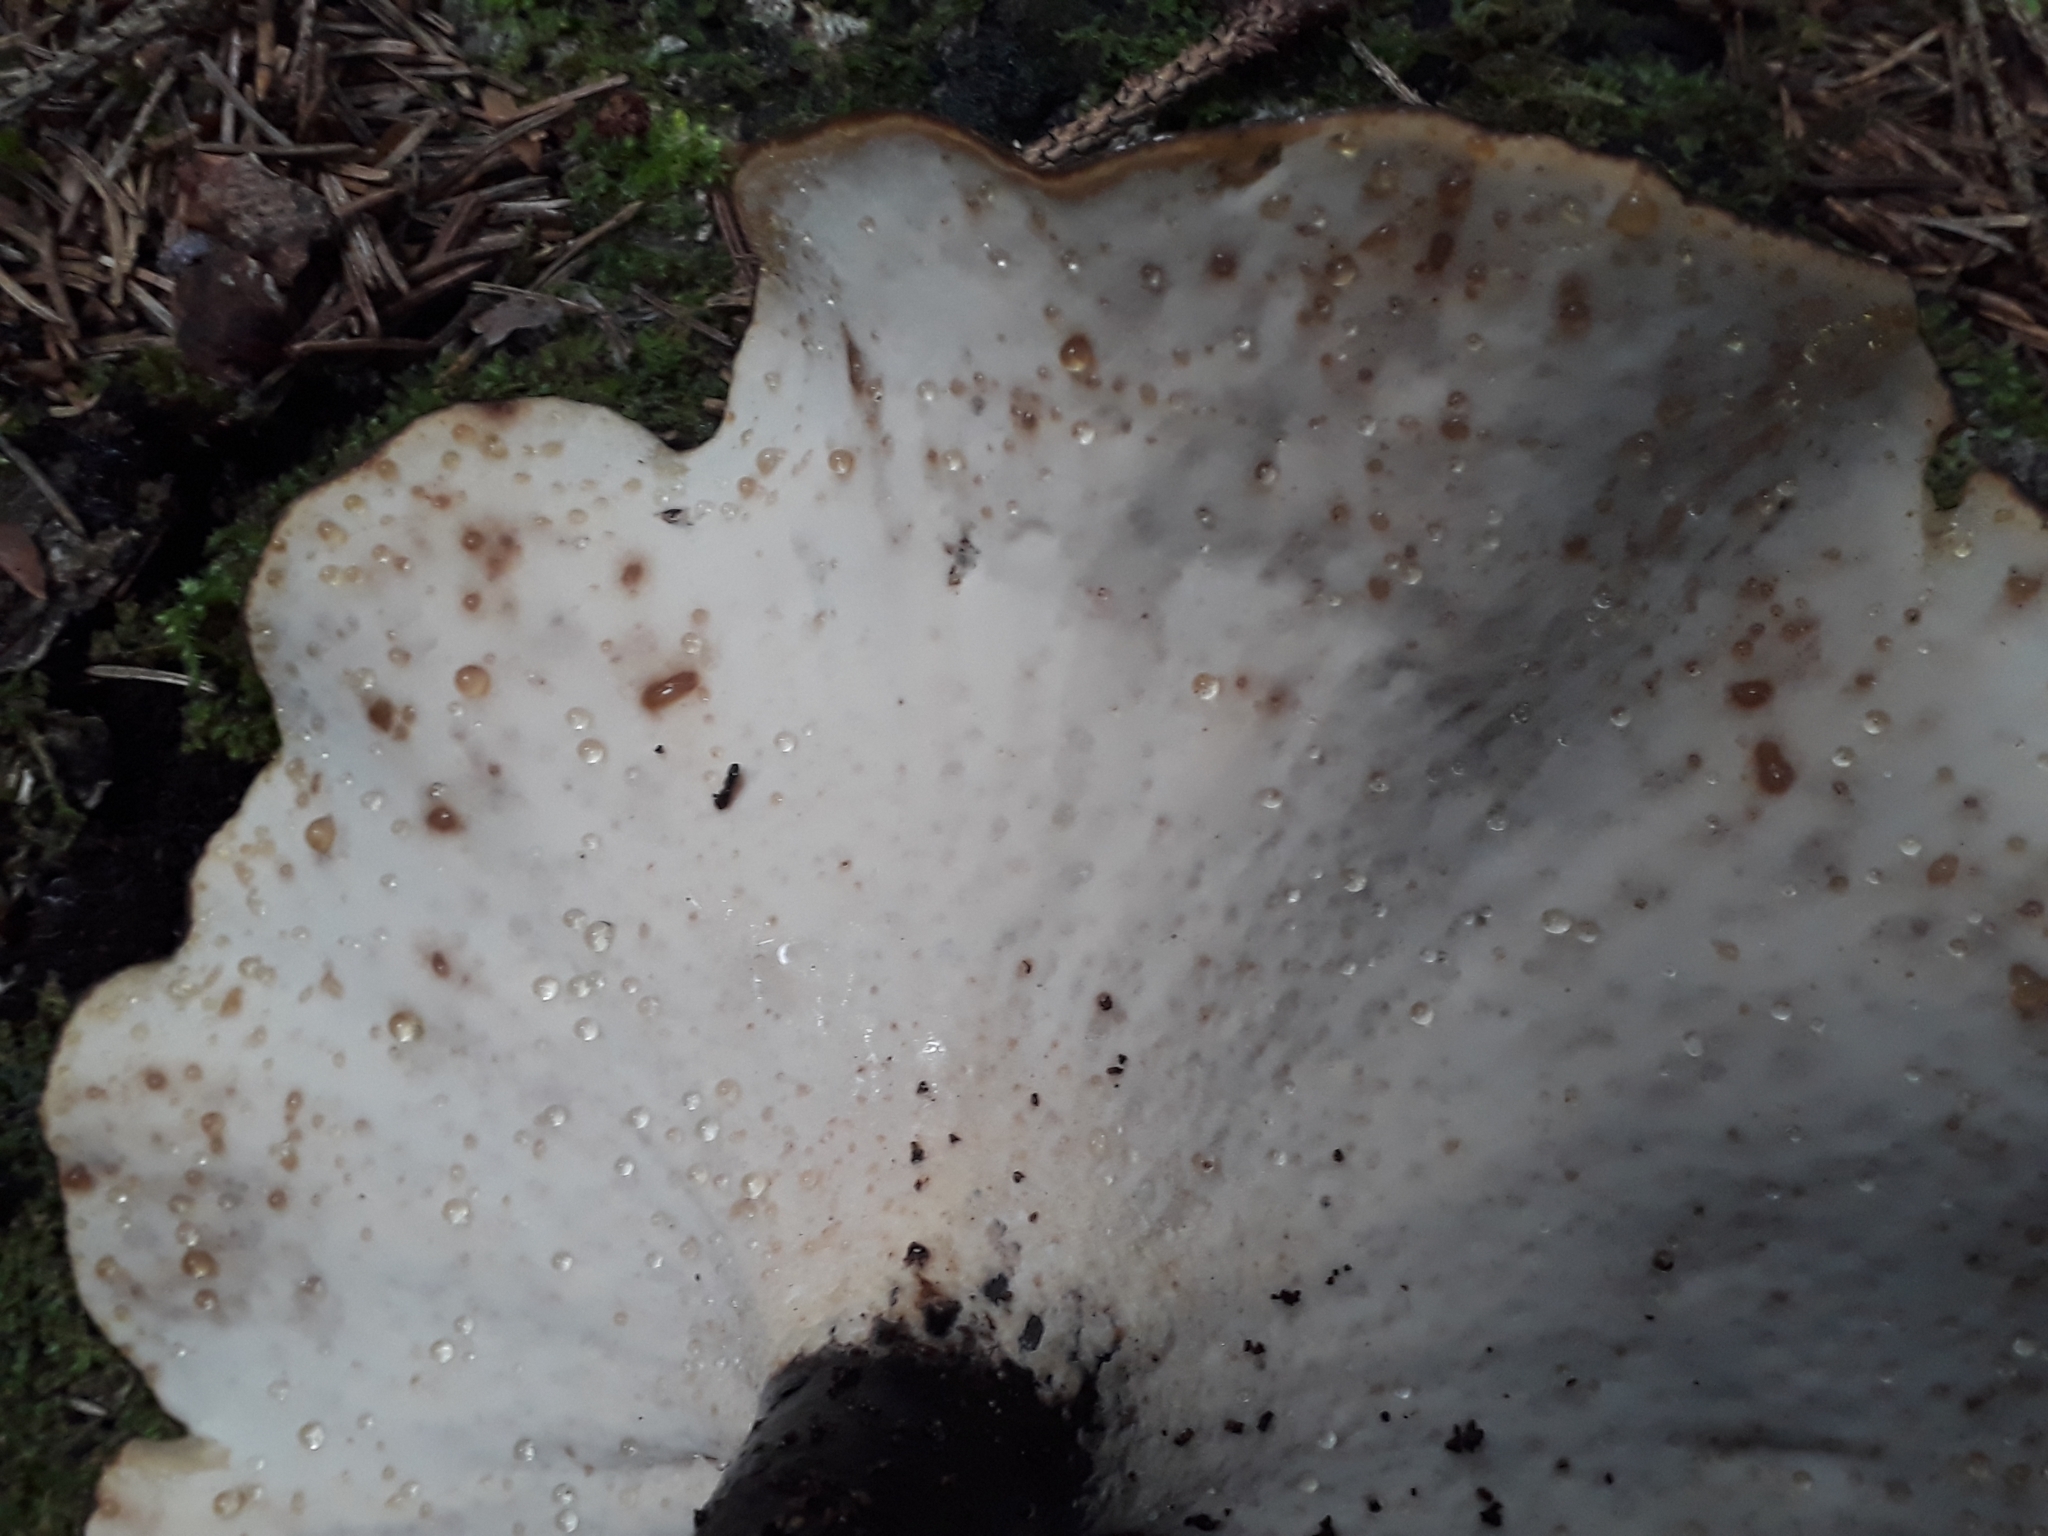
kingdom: Fungi
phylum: Basidiomycota
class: Agaricomycetes
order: Polyporales
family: Polyporaceae
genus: Picipes
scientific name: Picipes badius
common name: Bay polypore
